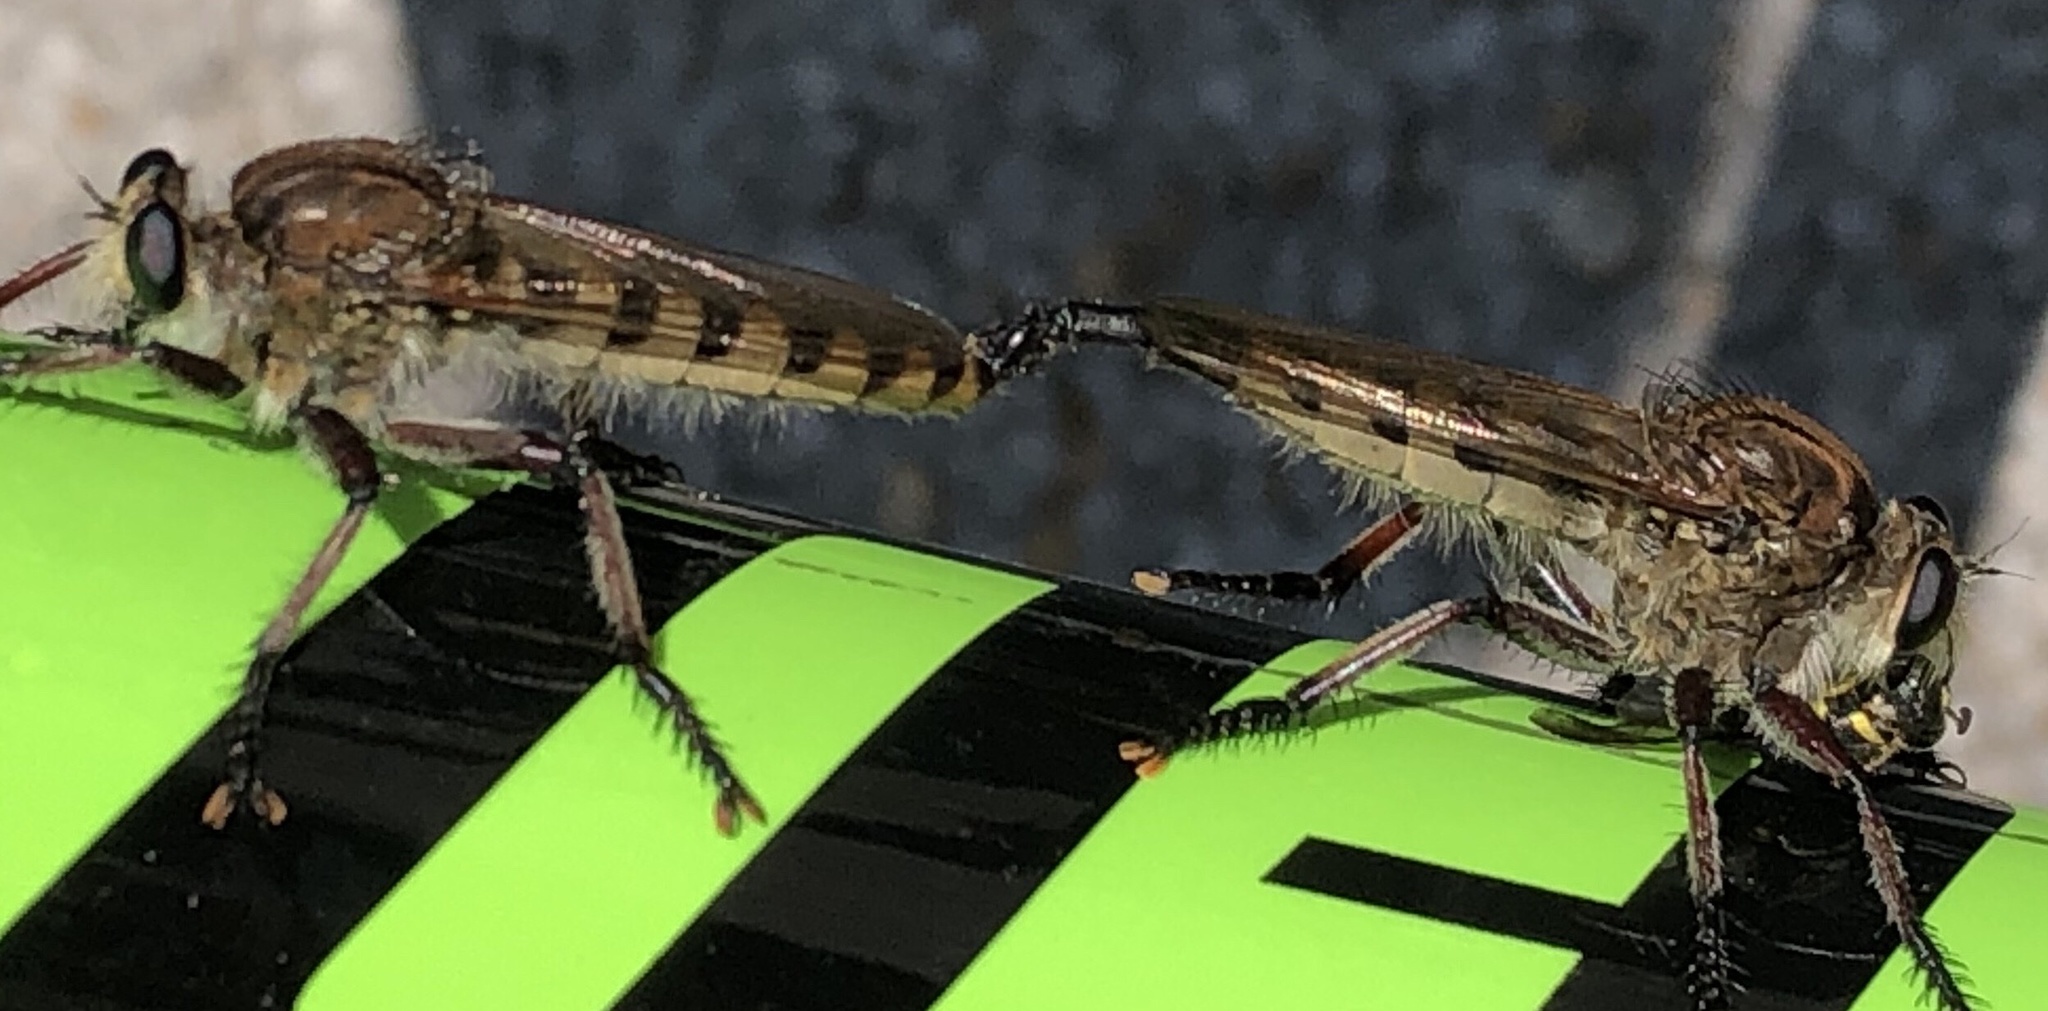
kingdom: Animalia
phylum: Arthropoda
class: Insecta
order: Diptera
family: Asilidae
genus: Promachus
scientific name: Promachus hinei
